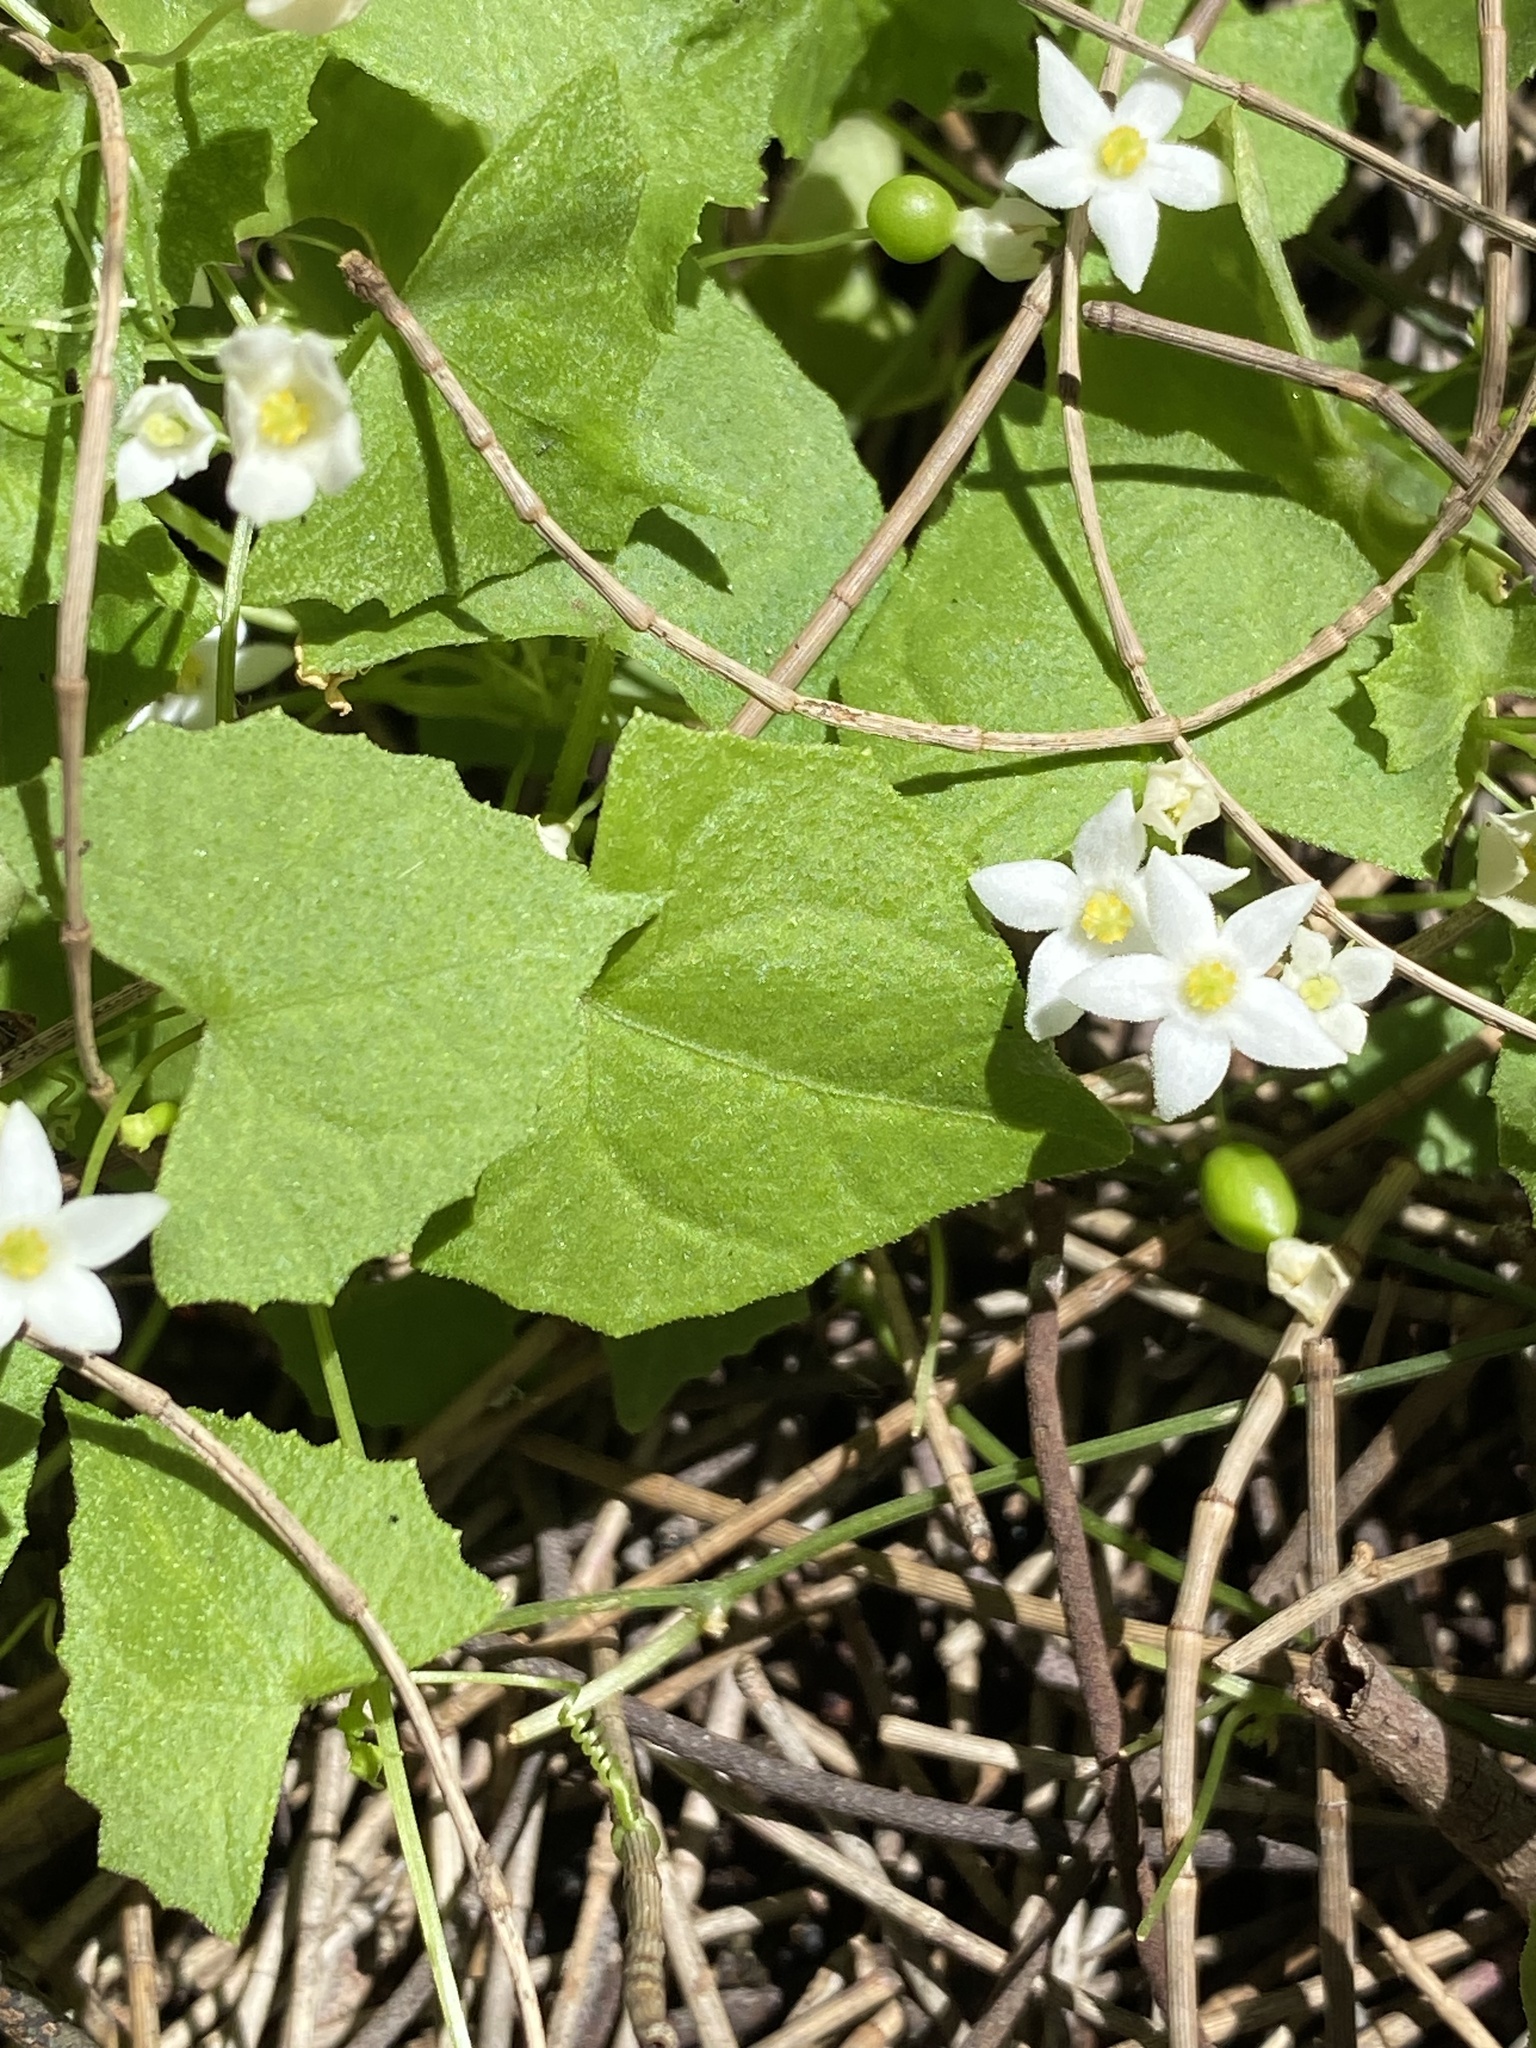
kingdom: Plantae
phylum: Tracheophyta
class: Magnoliopsida
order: Cucurbitales
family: Cucurbitaceae
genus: Zehneria
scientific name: Zehneria cunninghamii
